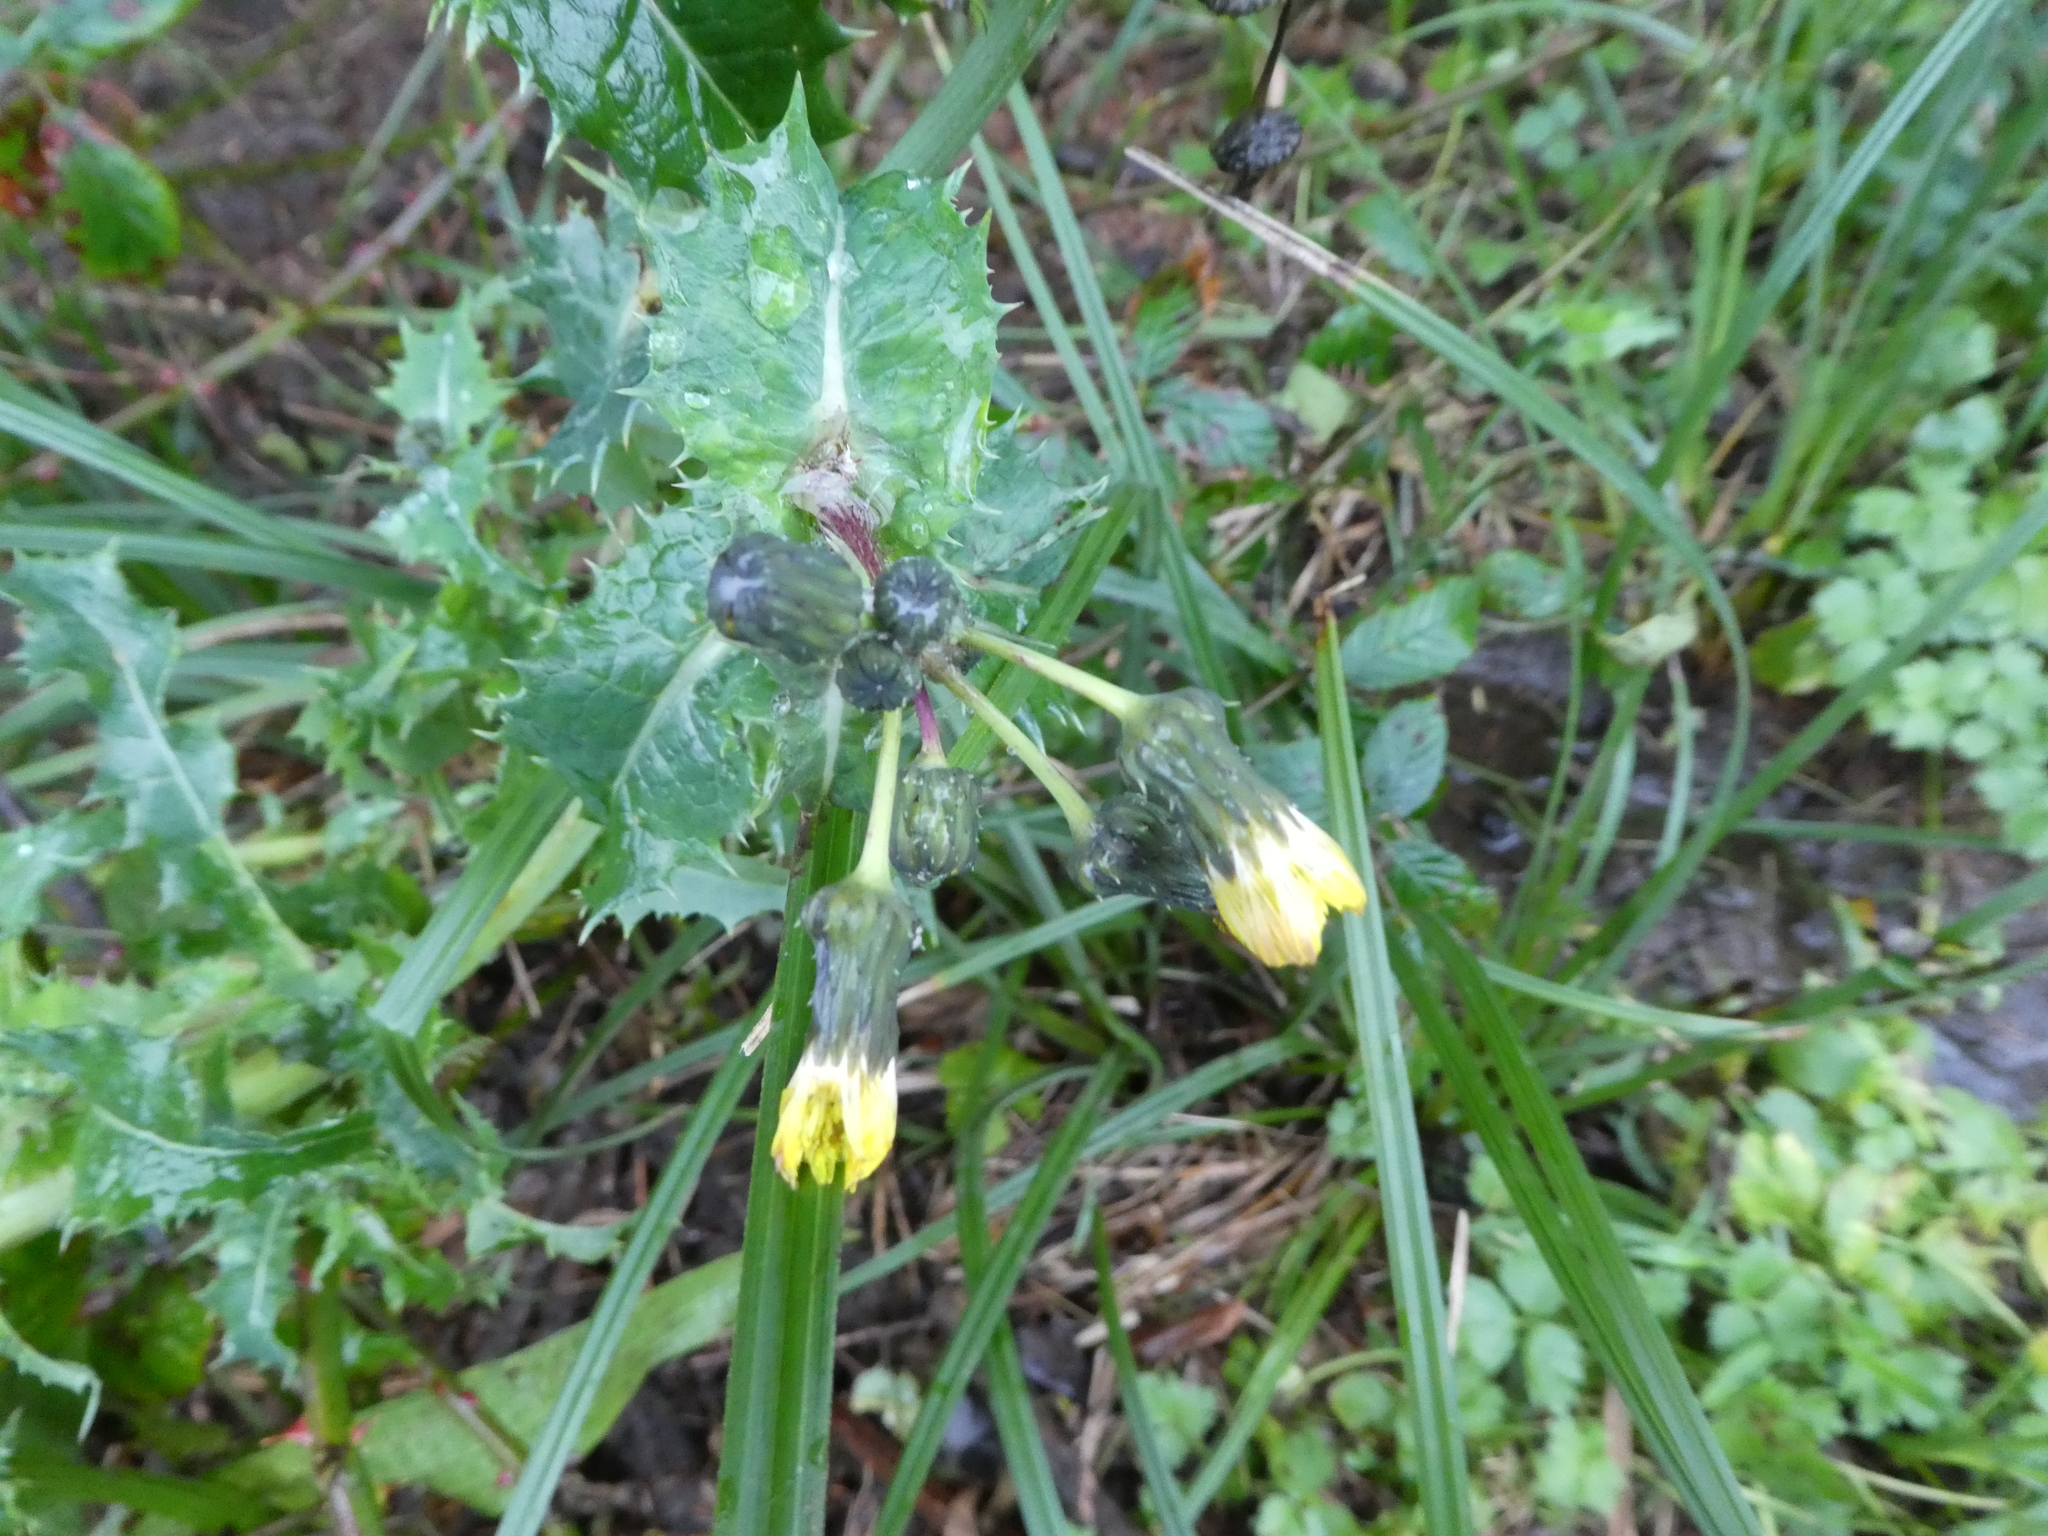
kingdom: Plantae
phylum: Tracheophyta
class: Magnoliopsida
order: Asterales
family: Asteraceae
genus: Sonchus
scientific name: Sonchus asper
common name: Prickly sow-thistle
